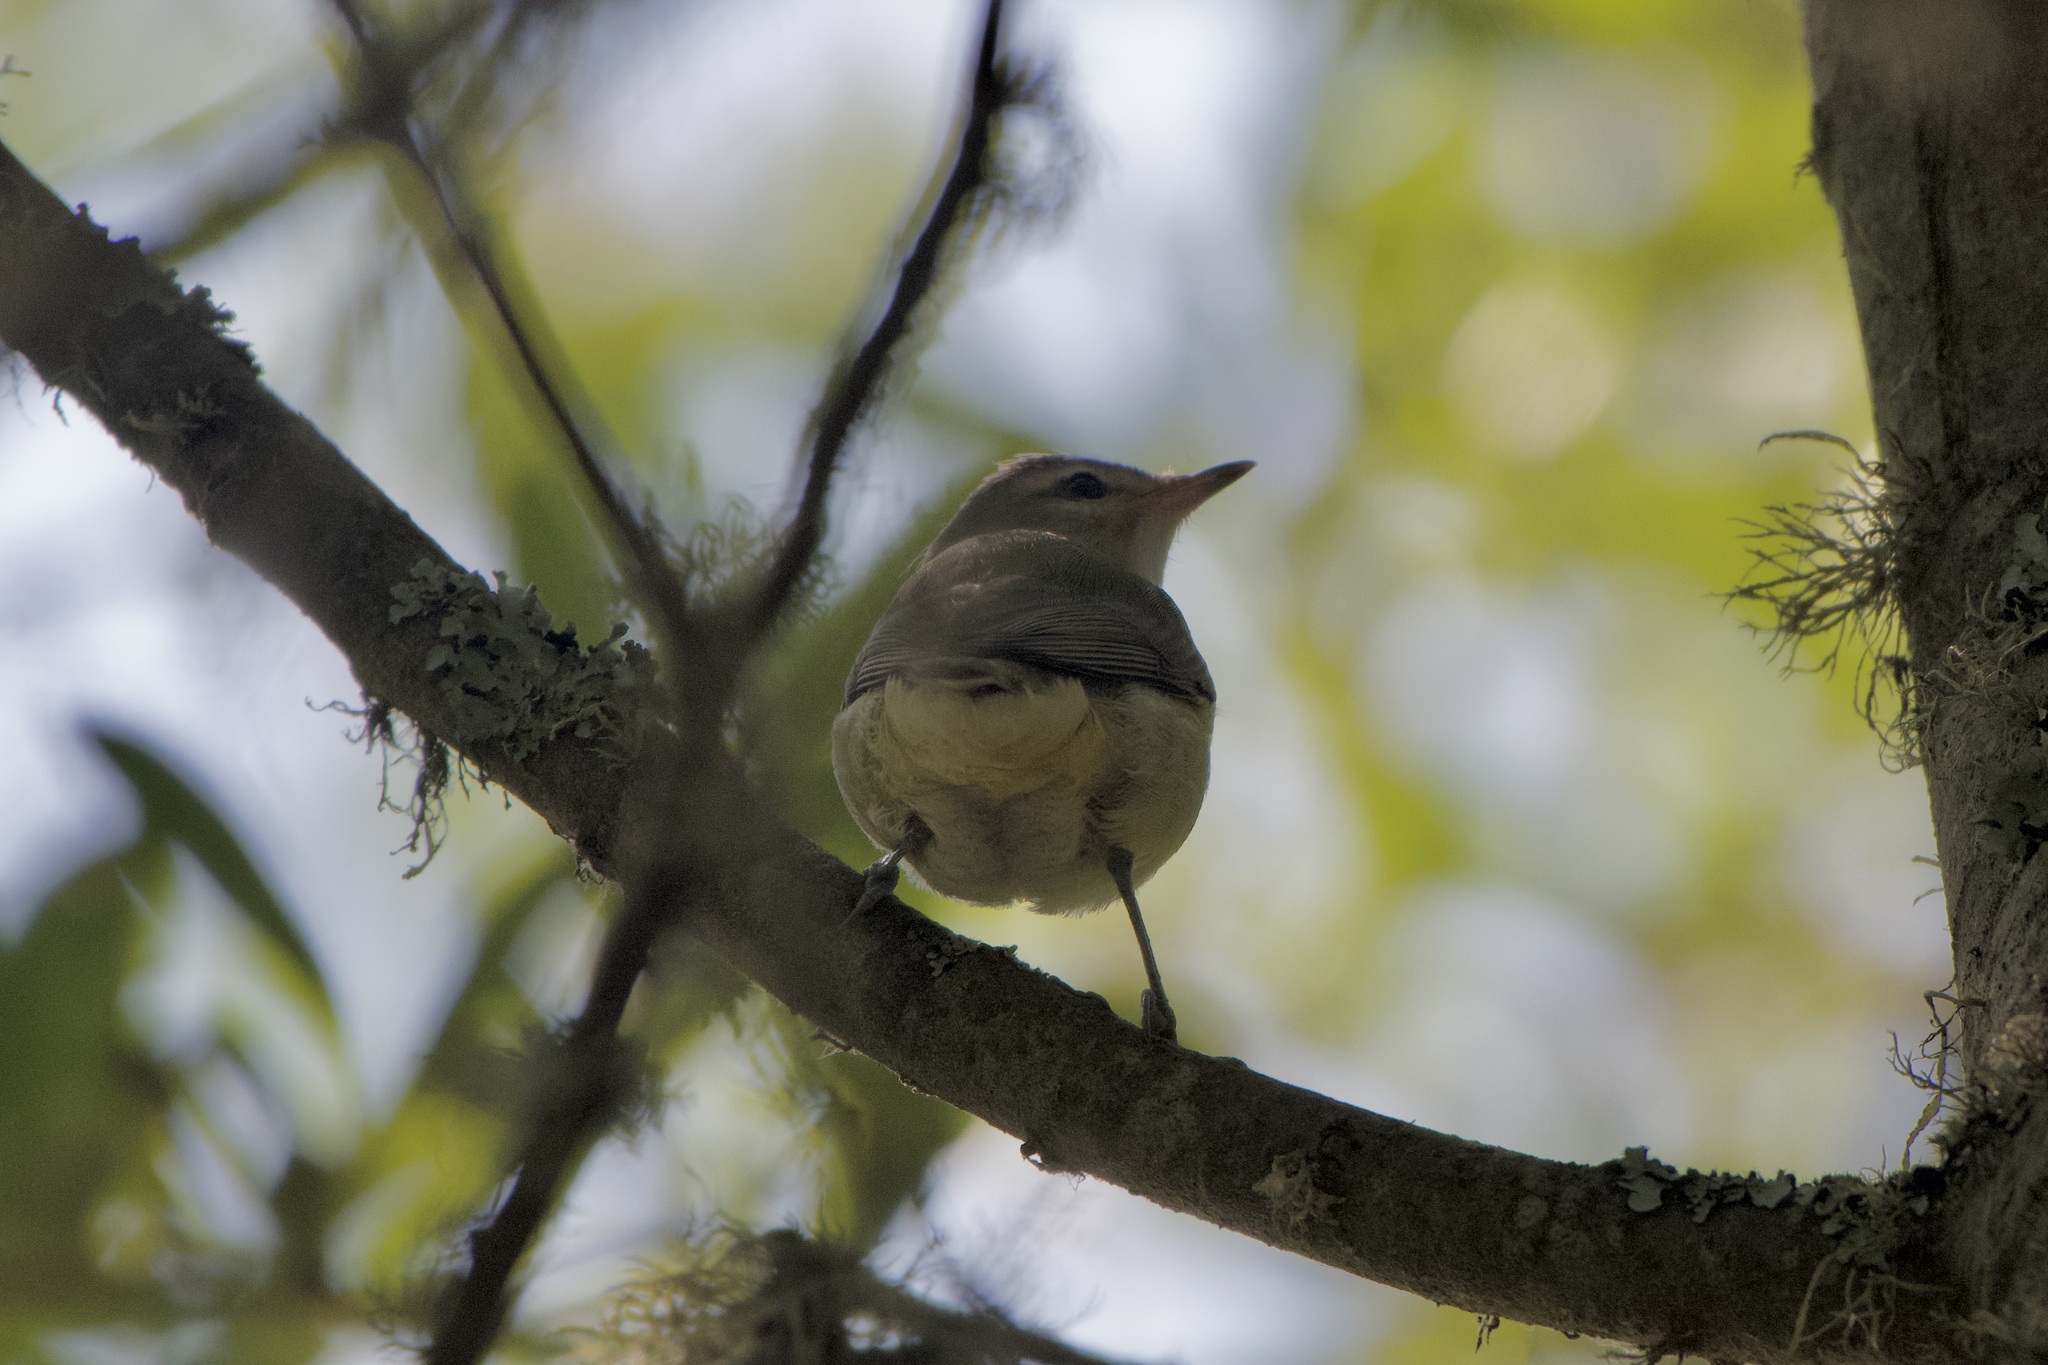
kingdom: Animalia
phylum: Chordata
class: Aves
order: Passeriformes
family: Vireonidae
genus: Vireo
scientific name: Vireo gilvus
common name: Warbling vireo
